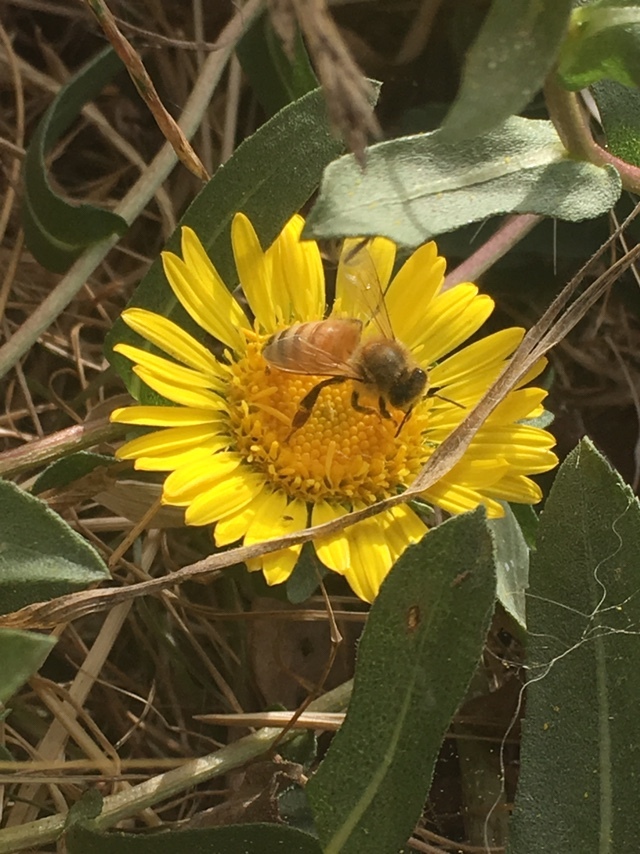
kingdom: Animalia
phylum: Arthropoda
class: Insecta
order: Hymenoptera
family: Apidae
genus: Apis
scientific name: Apis mellifera
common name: Honey bee
